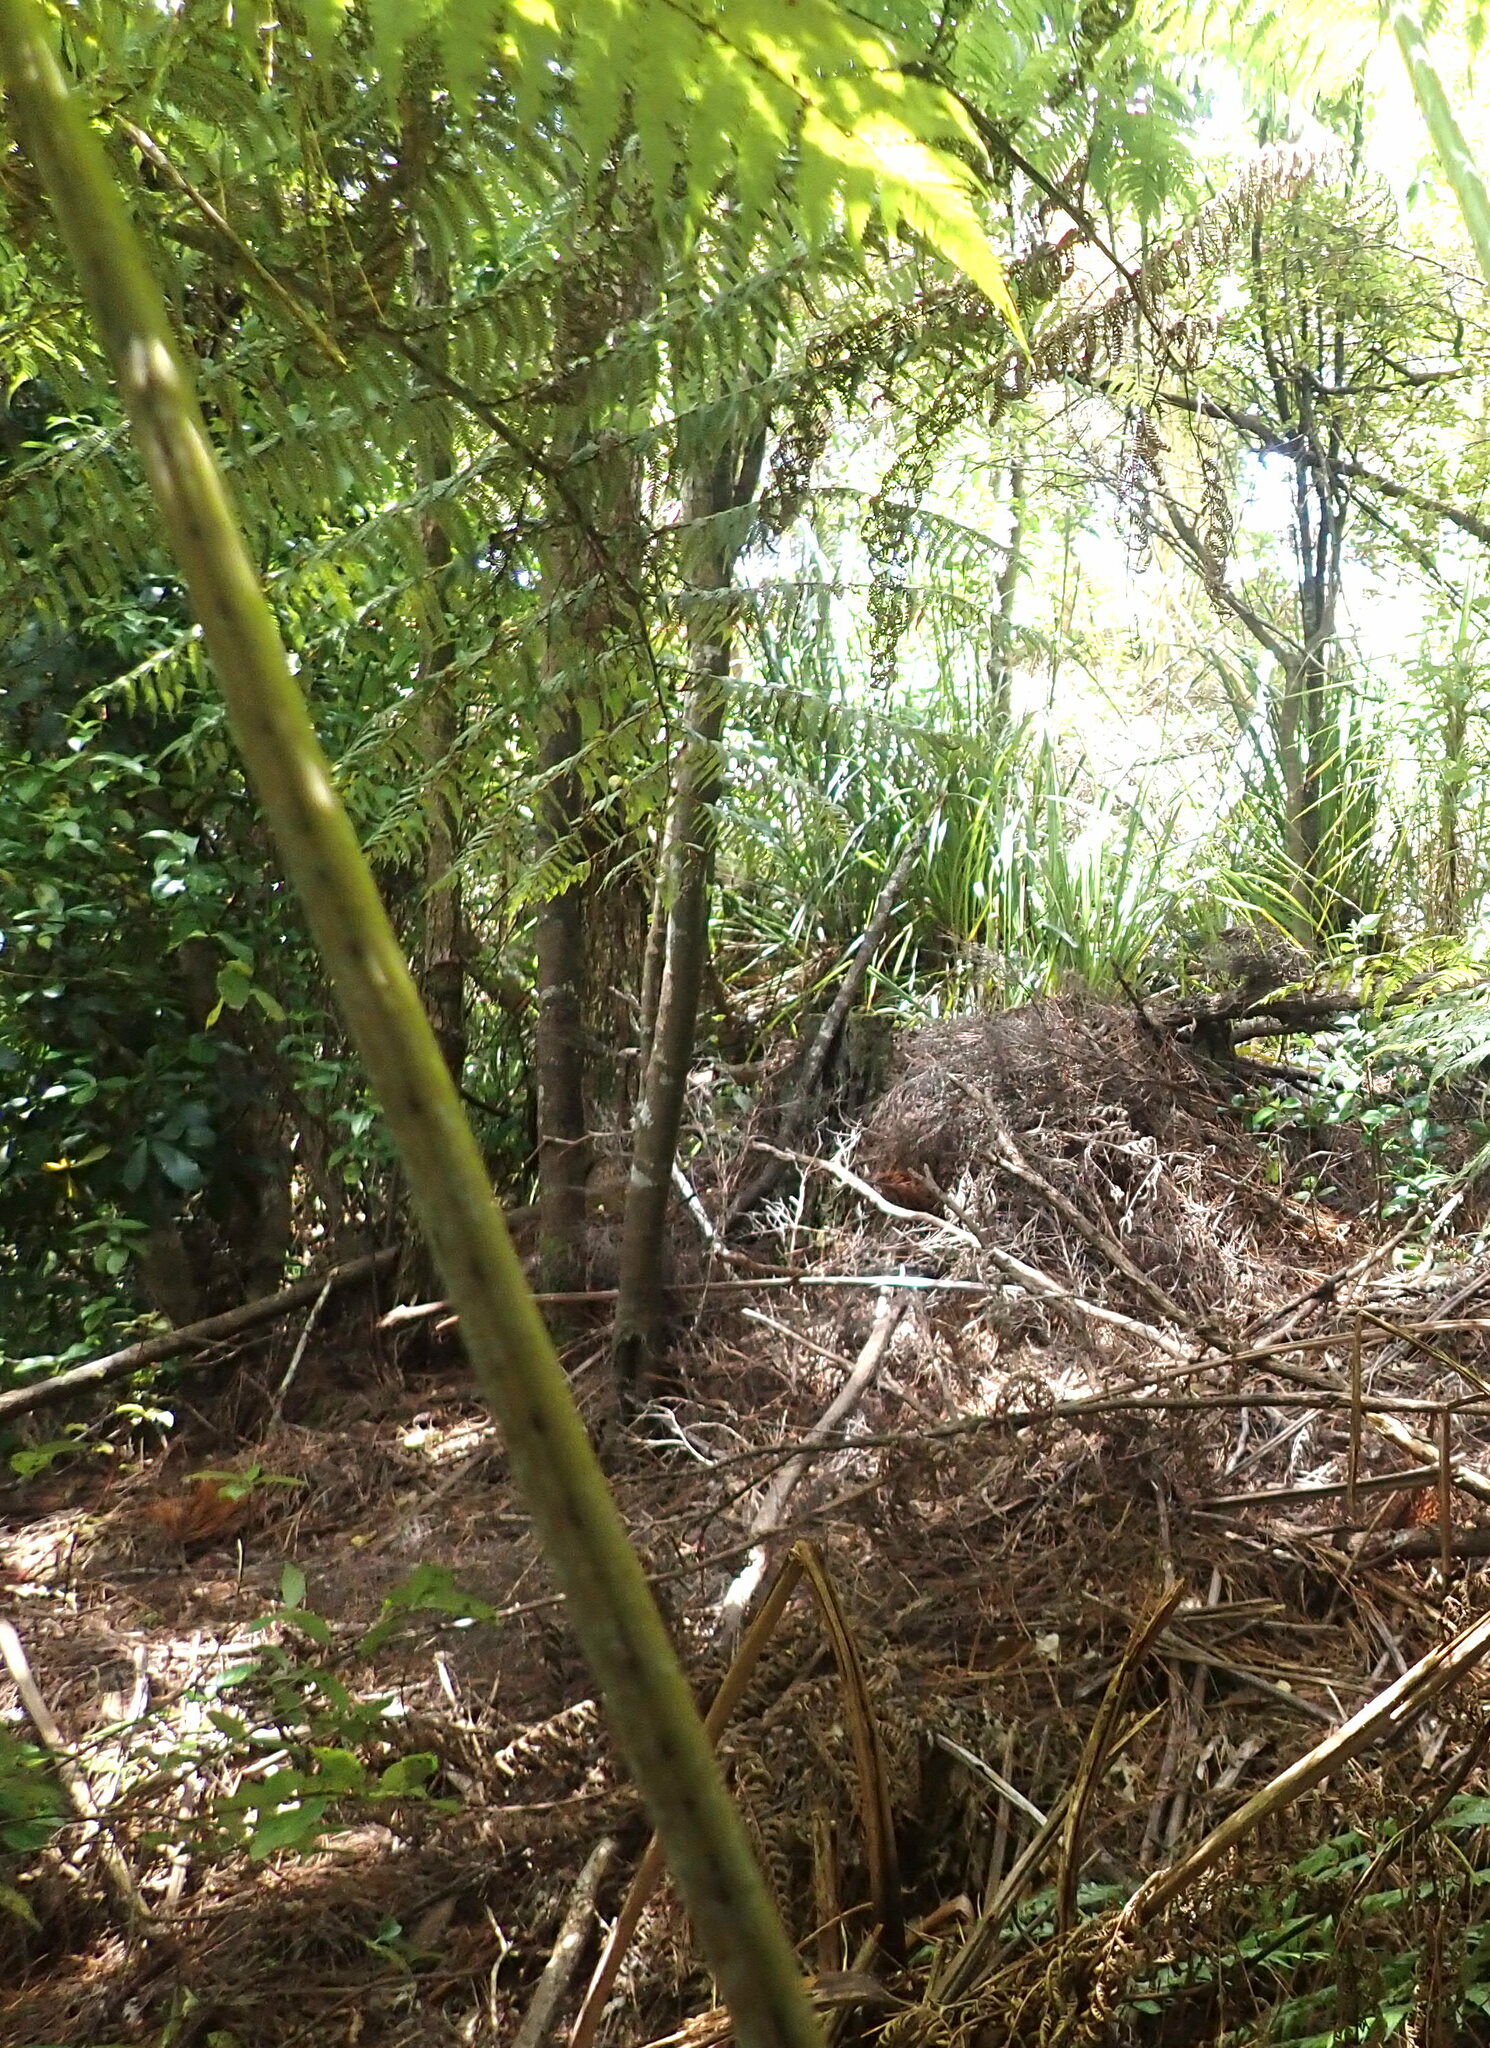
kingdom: Plantae
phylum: Tracheophyta
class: Magnoliopsida
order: Ericales
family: Primulaceae
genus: Myrsine
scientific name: Myrsine australis
